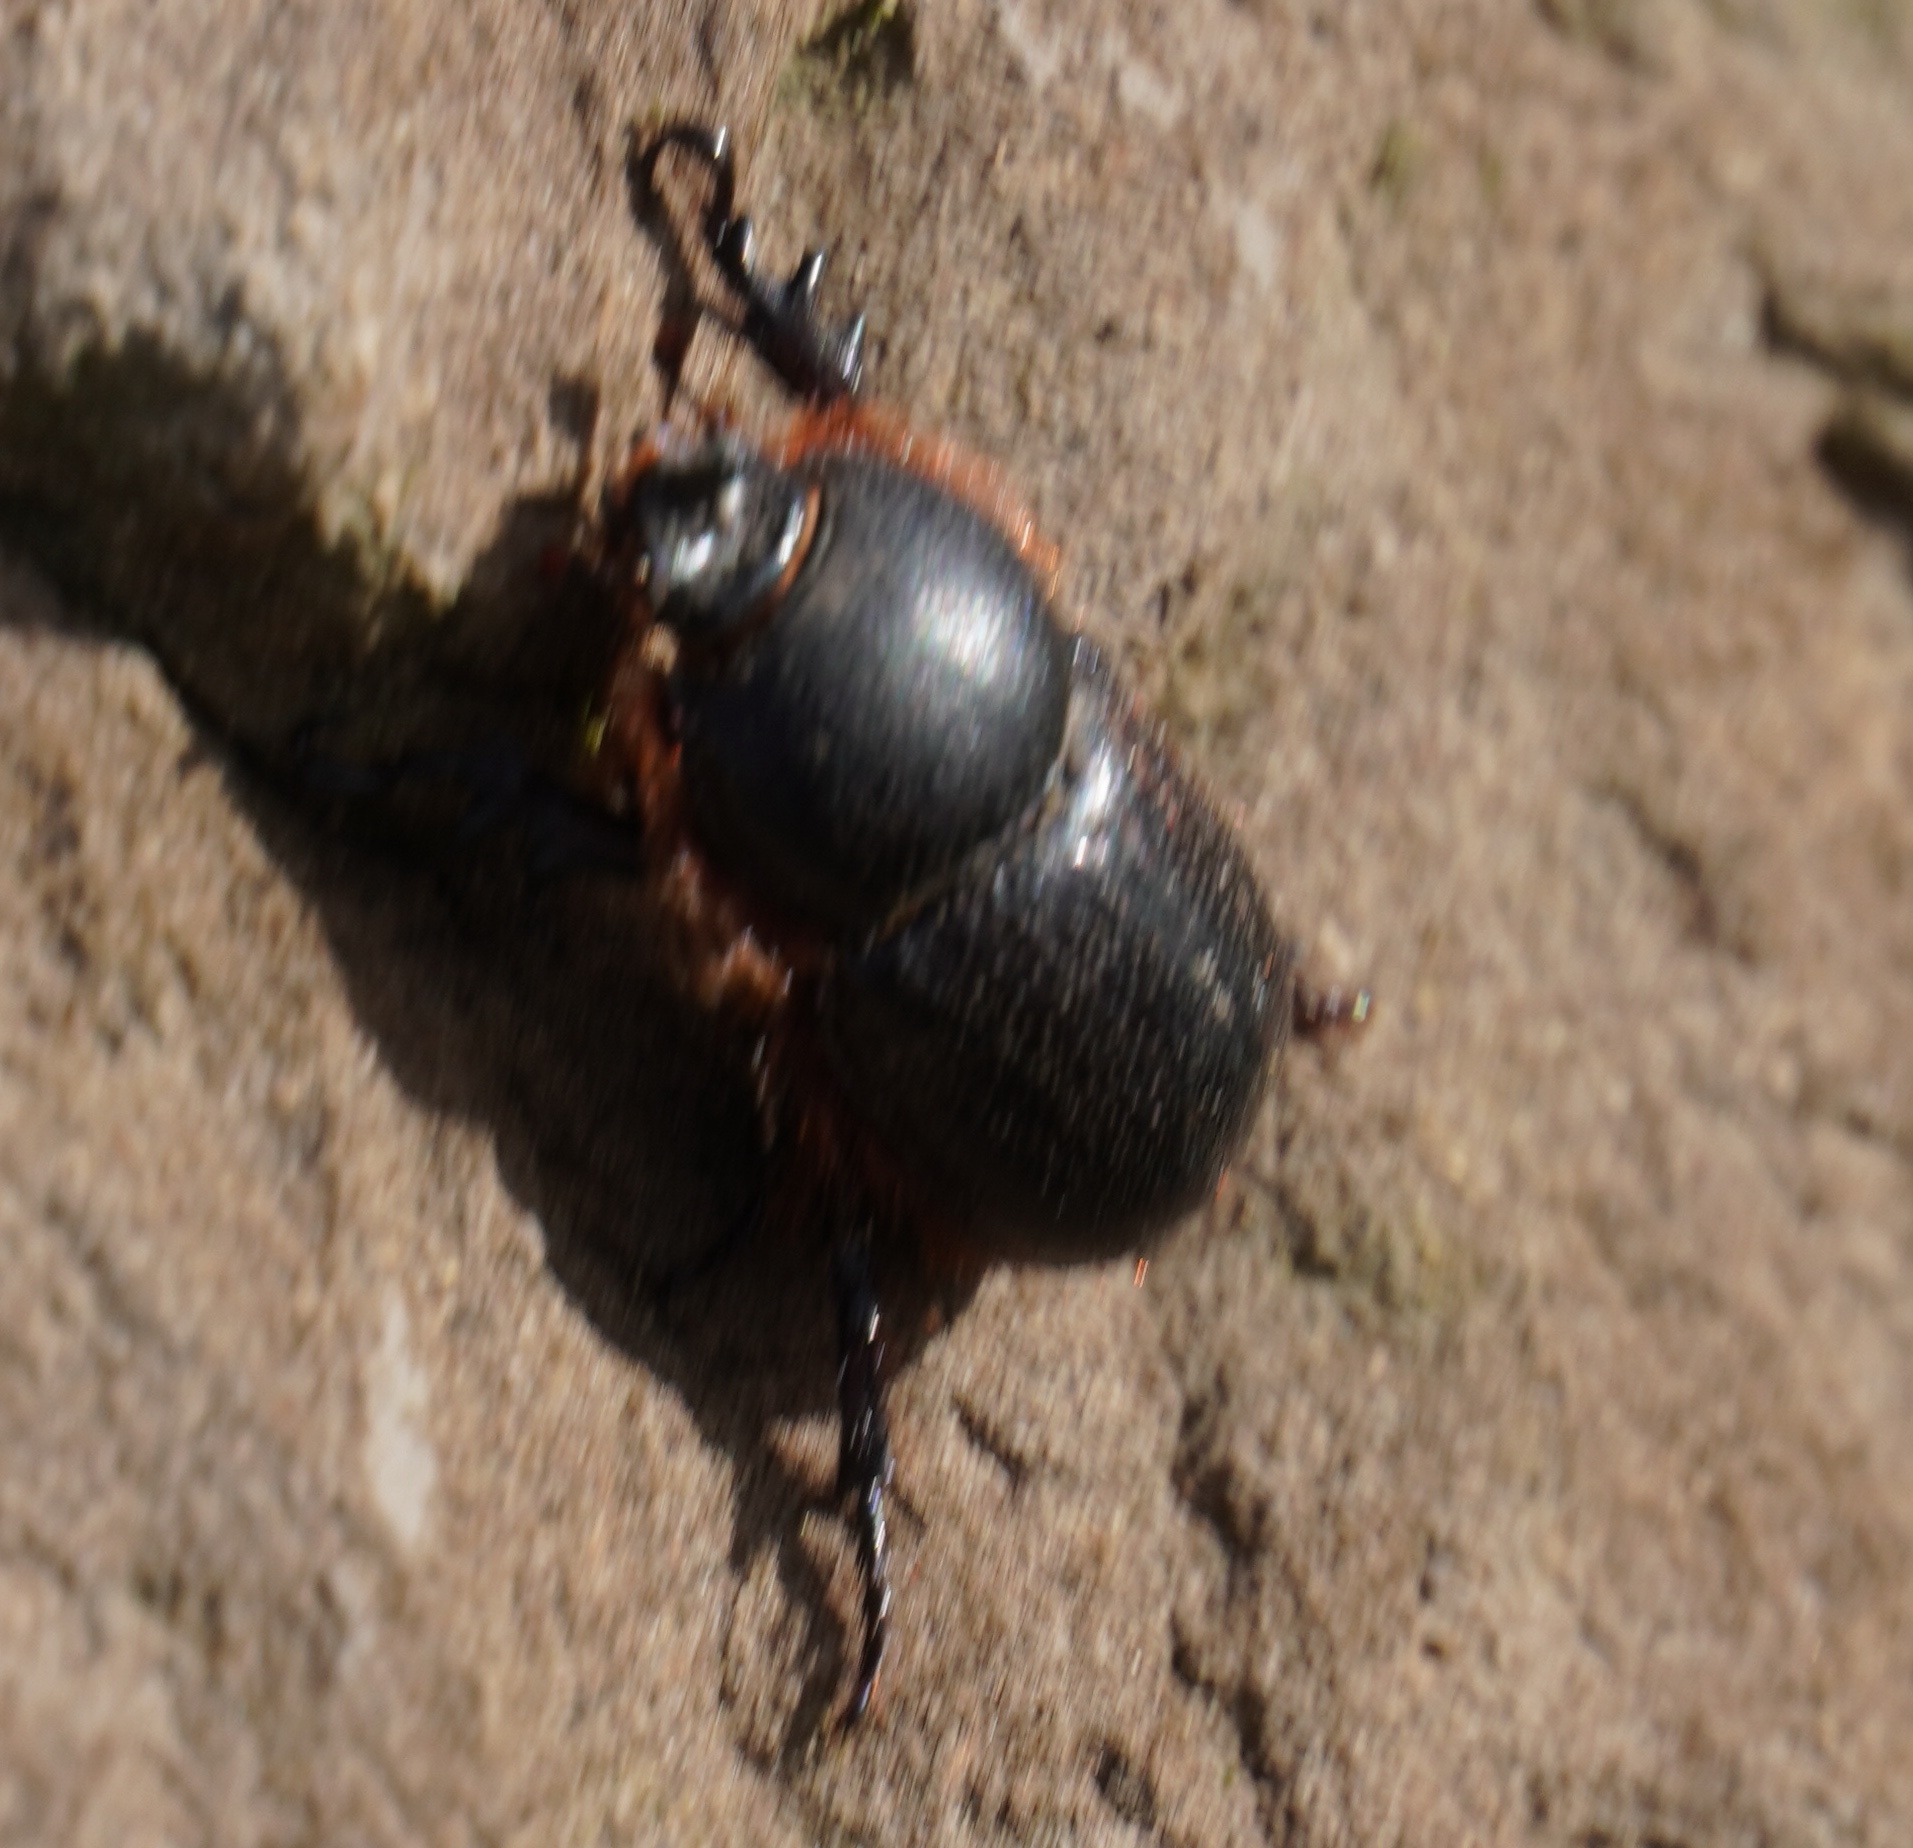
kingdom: Animalia
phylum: Arthropoda
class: Insecta
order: Coleoptera
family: Scarabaeidae
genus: Kirprellius
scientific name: Kirprellius syrichtus
